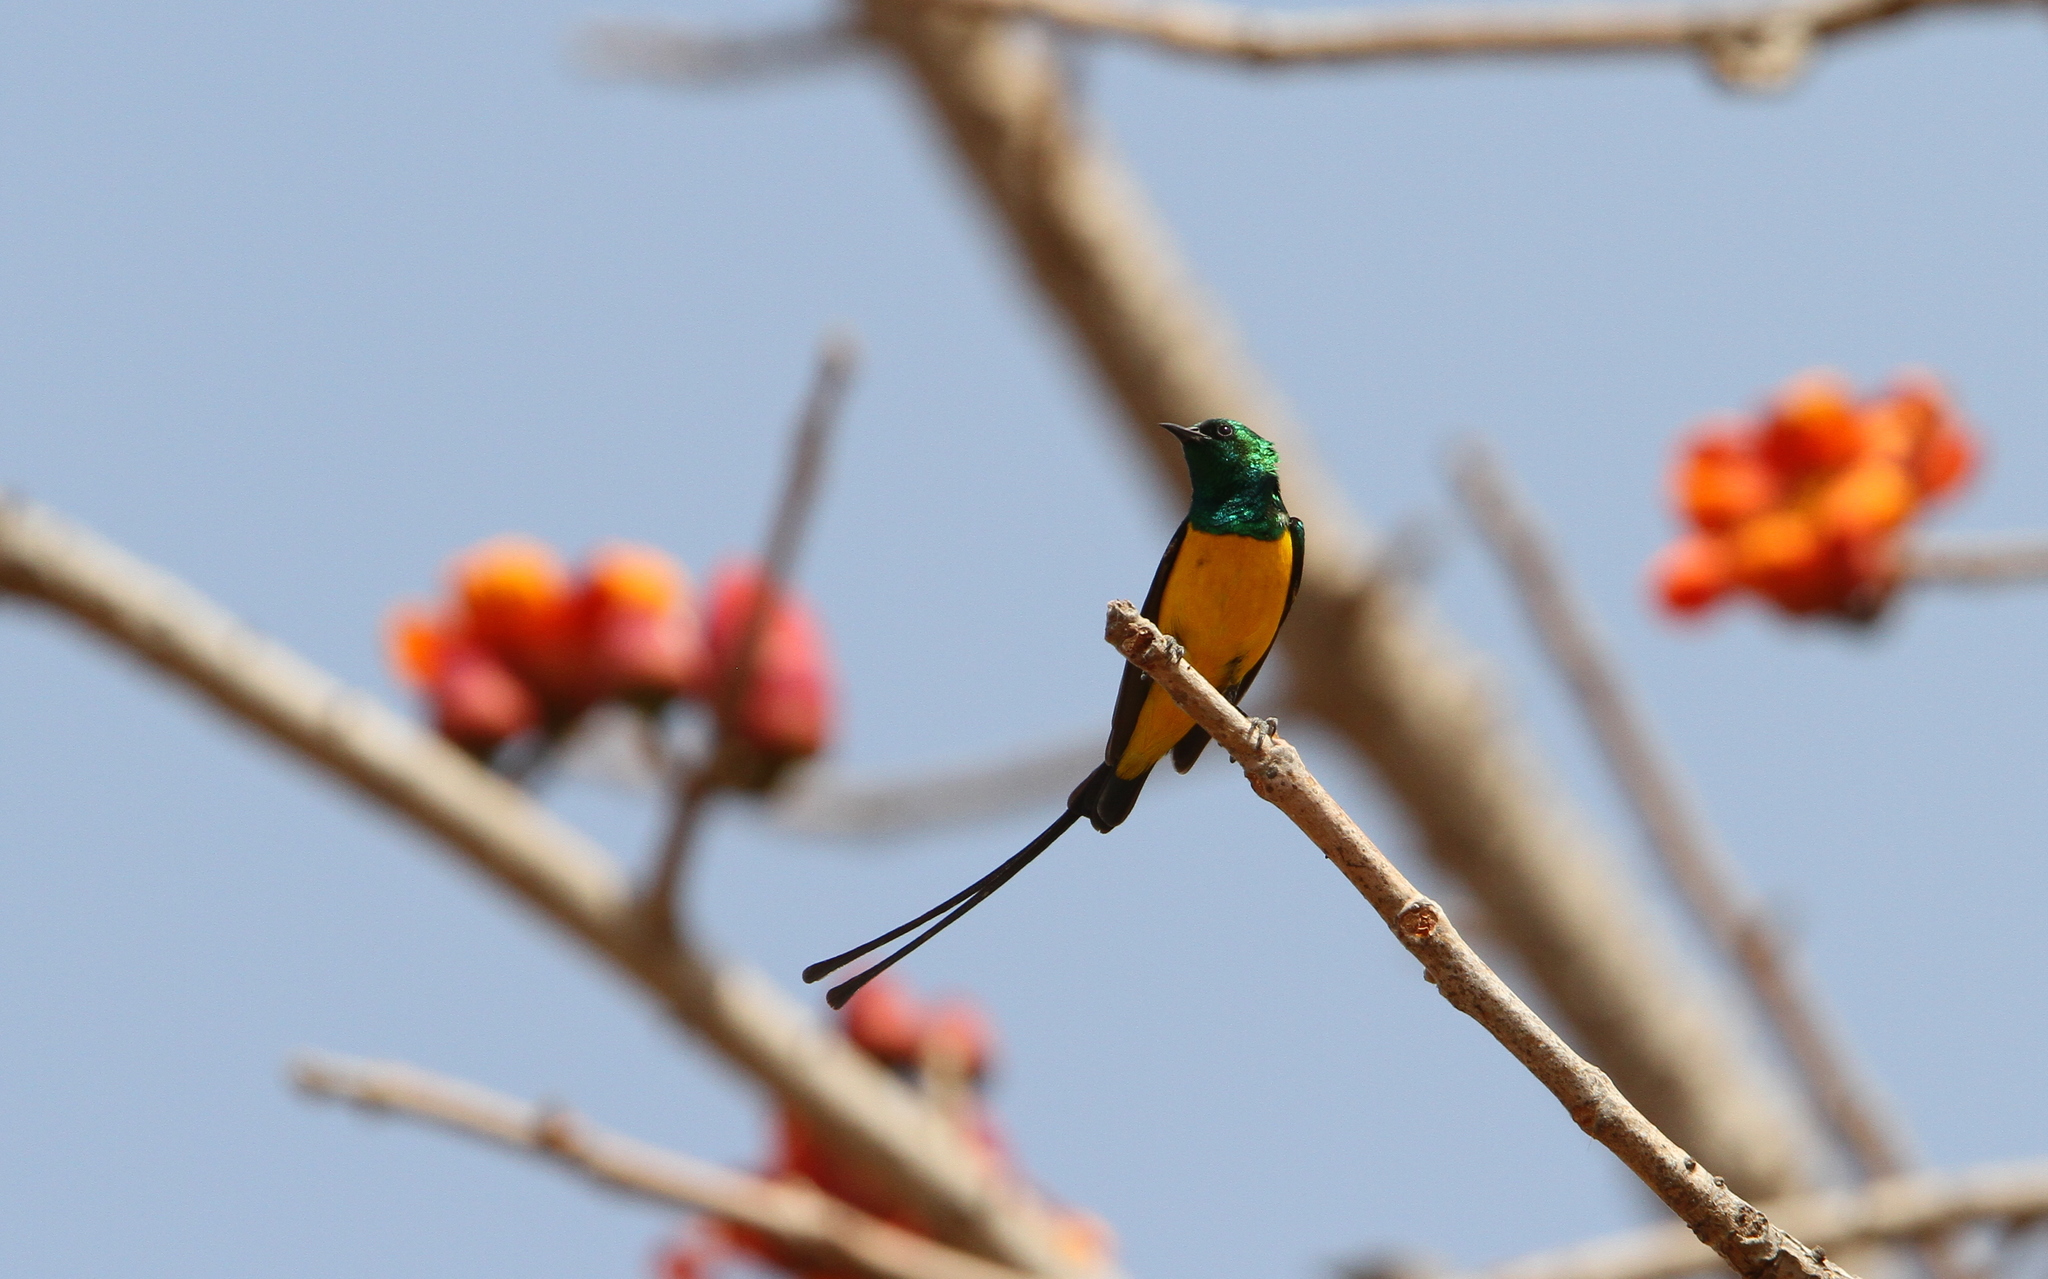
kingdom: Animalia
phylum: Chordata
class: Aves
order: Passeriformes
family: Nectariniidae
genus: Hedydipna
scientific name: Hedydipna platura
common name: Pygmy sunbird
